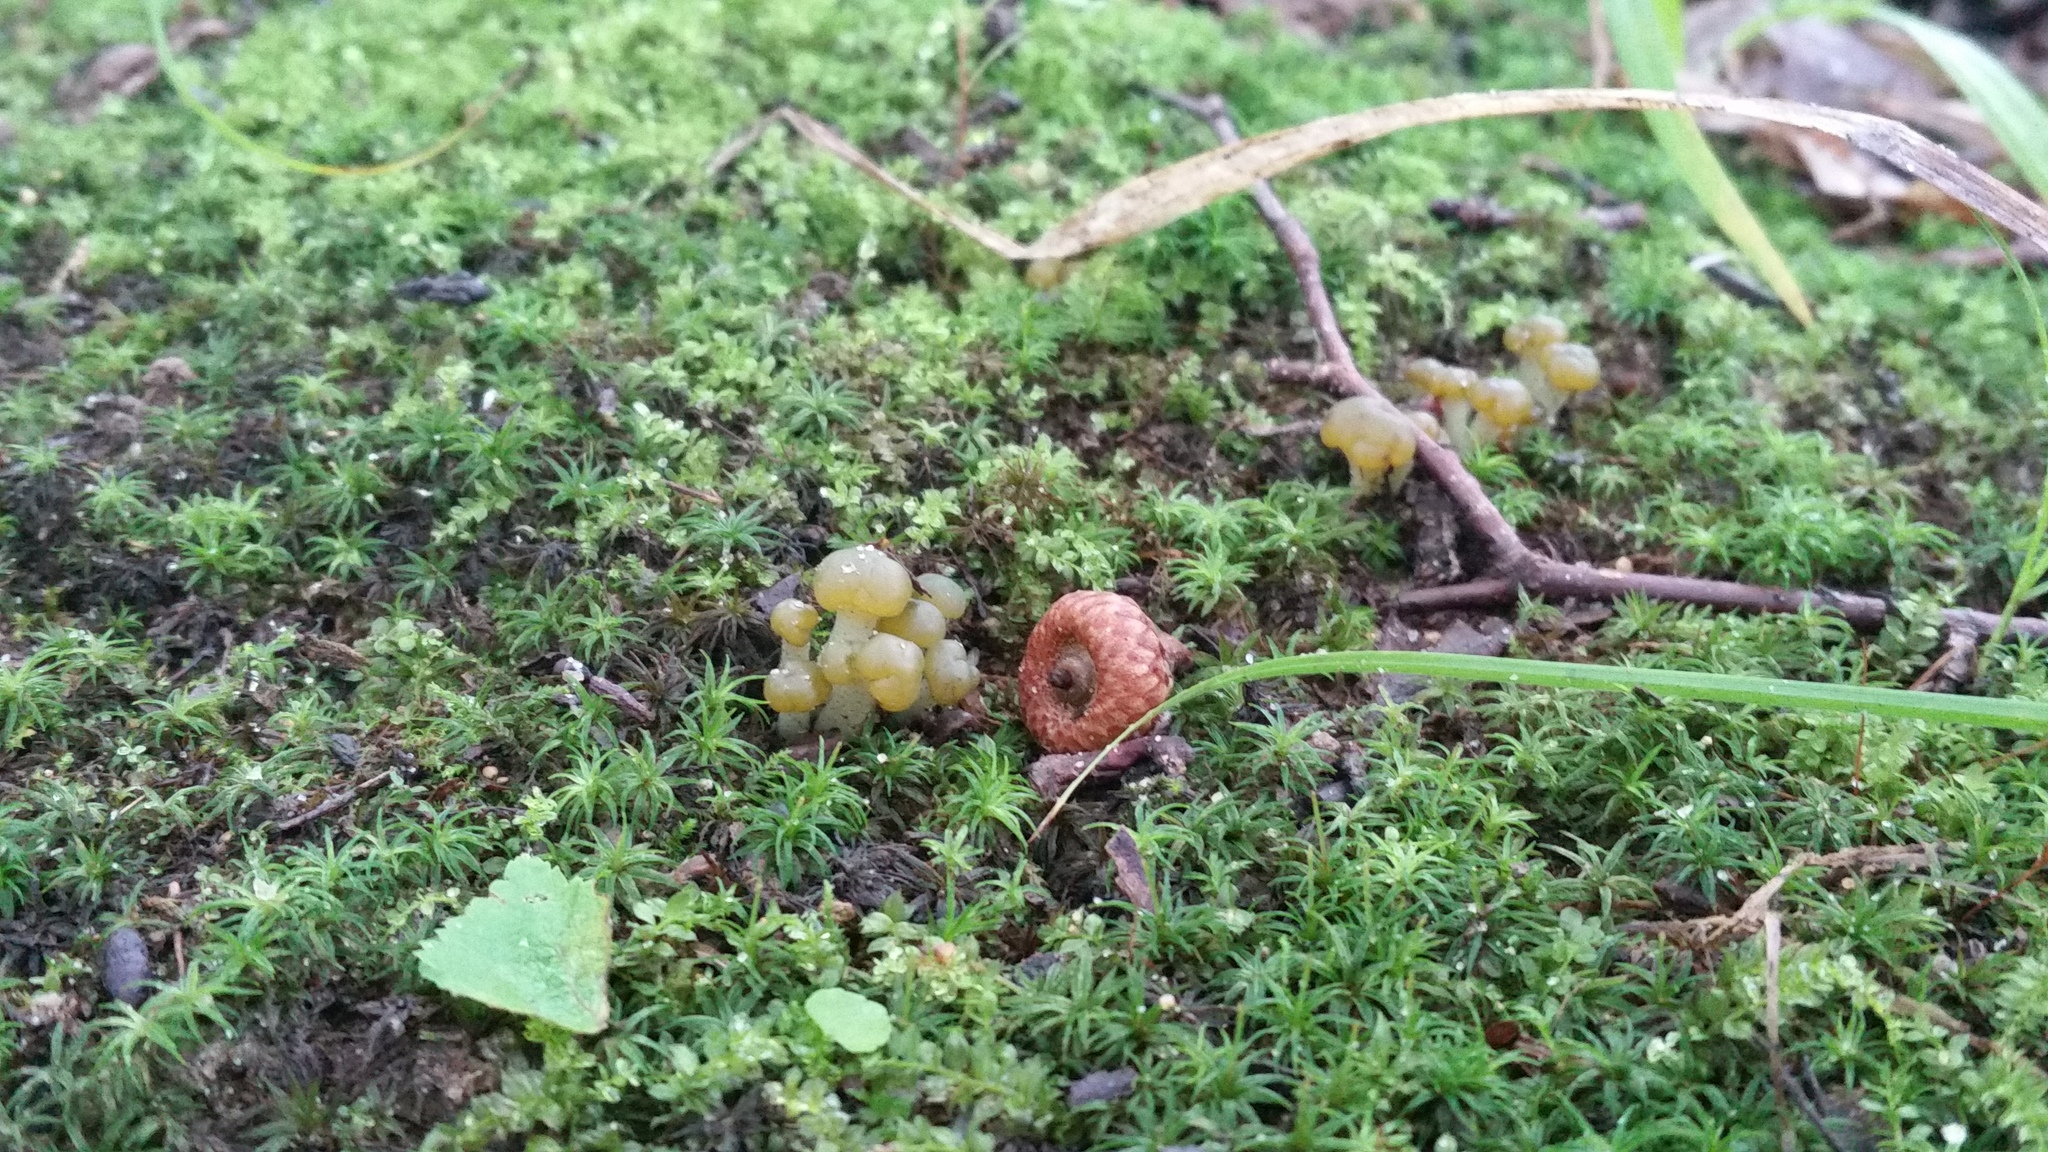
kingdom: Fungi
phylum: Ascomycota
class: Leotiomycetes
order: Leotiales
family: Leotiaceae
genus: Leotia
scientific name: Leotia lubrica
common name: Jellybaby
